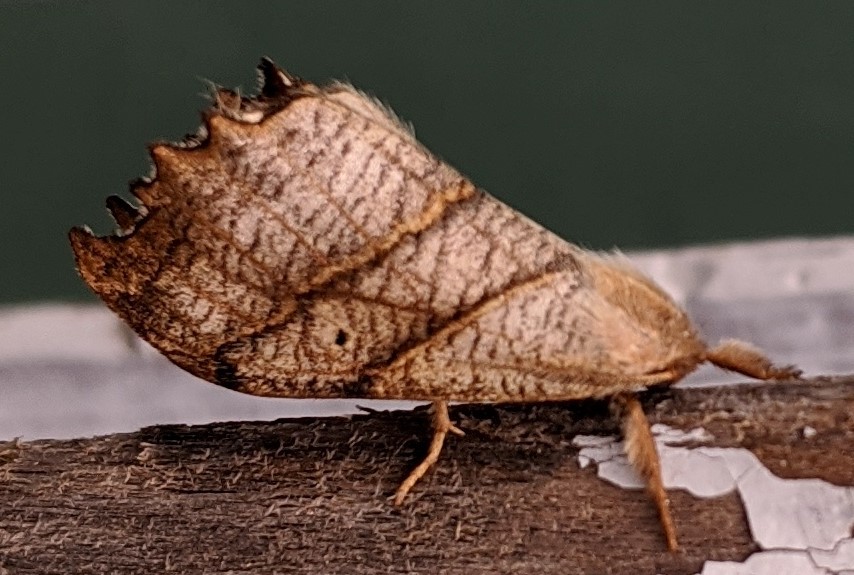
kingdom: Animalia
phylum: Arthropoda
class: Insecta
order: Lepidoptera
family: Drepanidae
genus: Falcaria
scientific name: Falcaria bilineata
